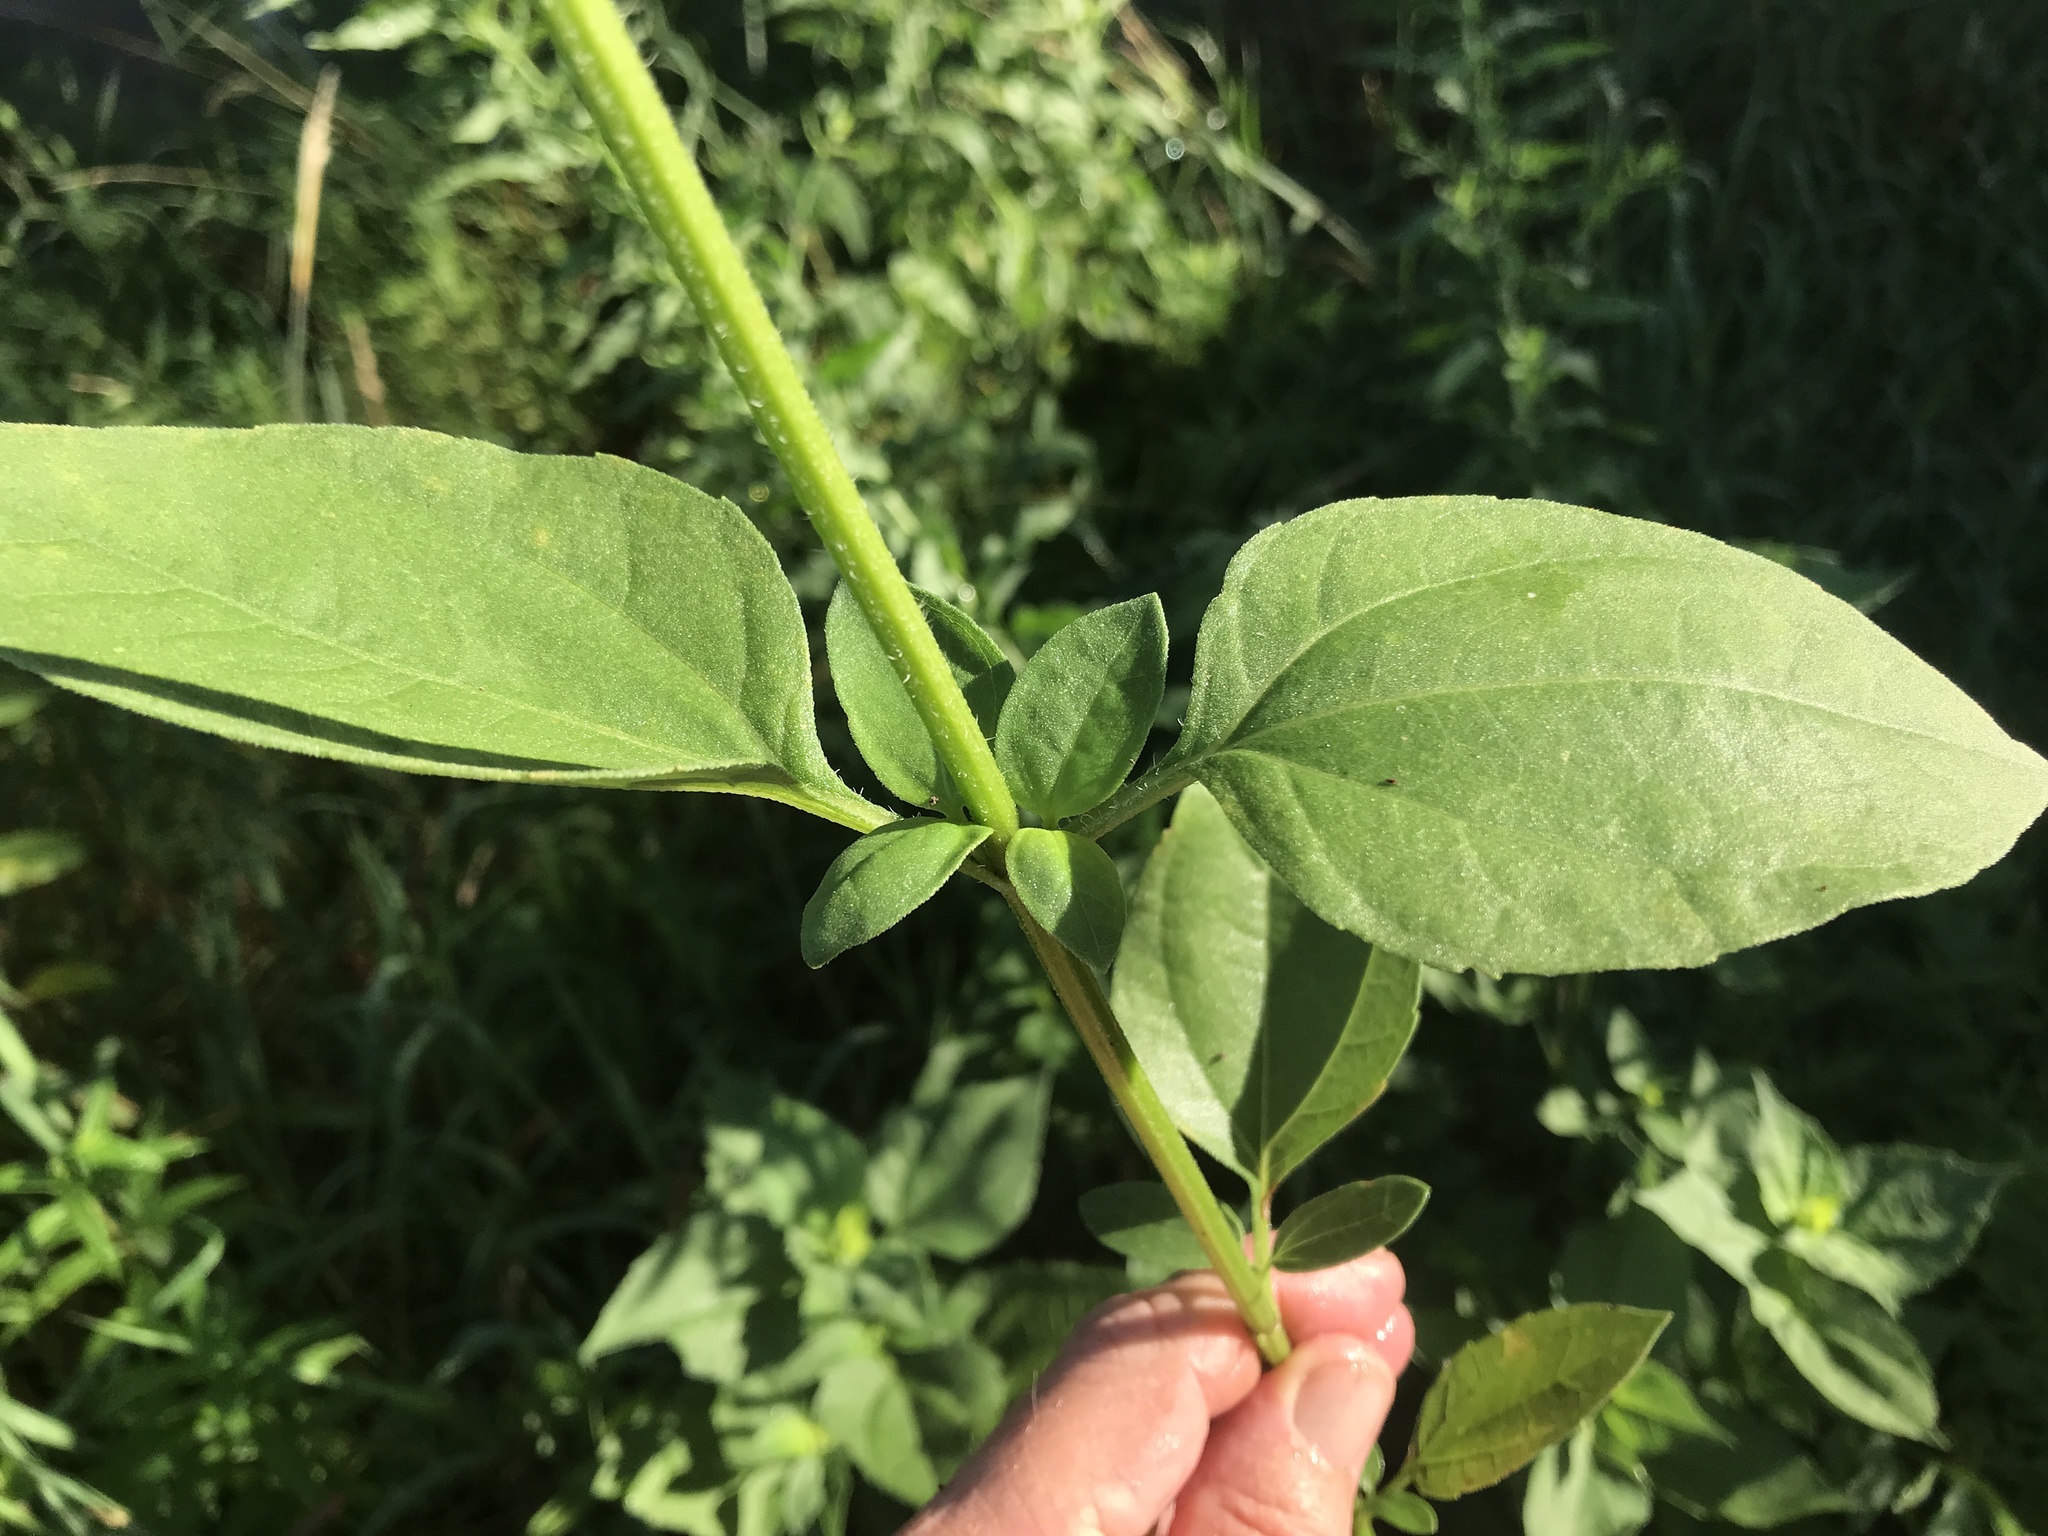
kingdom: Plantae
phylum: Tracheophyta
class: Magnoliopsida
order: Asterales
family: Asteraceae
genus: Iva
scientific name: Iva annua
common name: Marsh-elder
